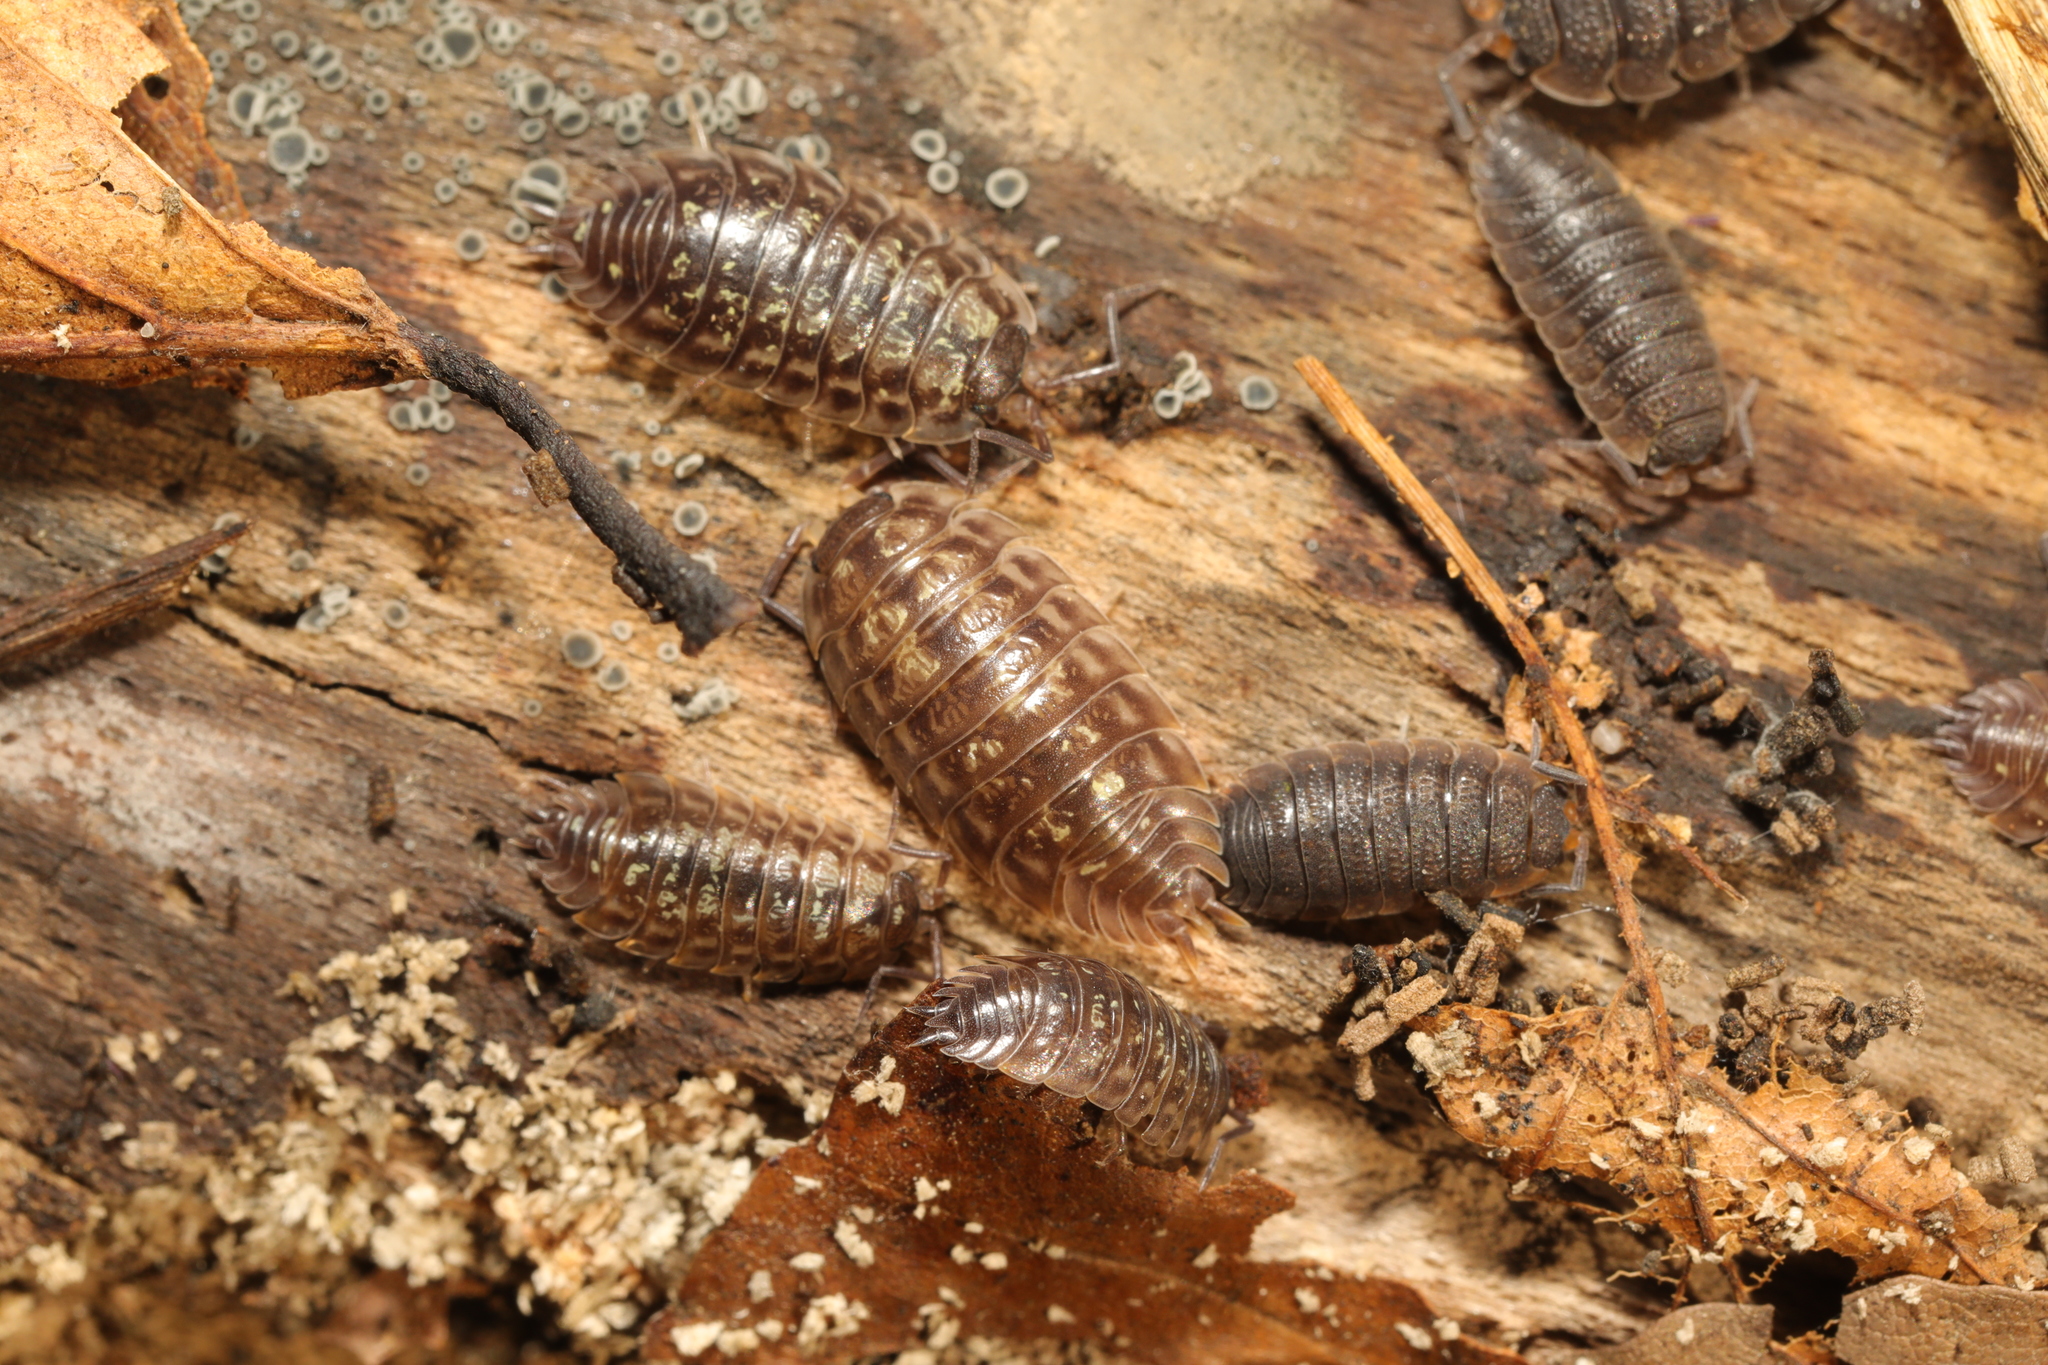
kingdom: Animalia
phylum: Arthropoda
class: Malacostraca
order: Isopoda
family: Oniscidae
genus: Oniscus
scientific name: Oniscus asellus
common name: Common shiny woodlouse
